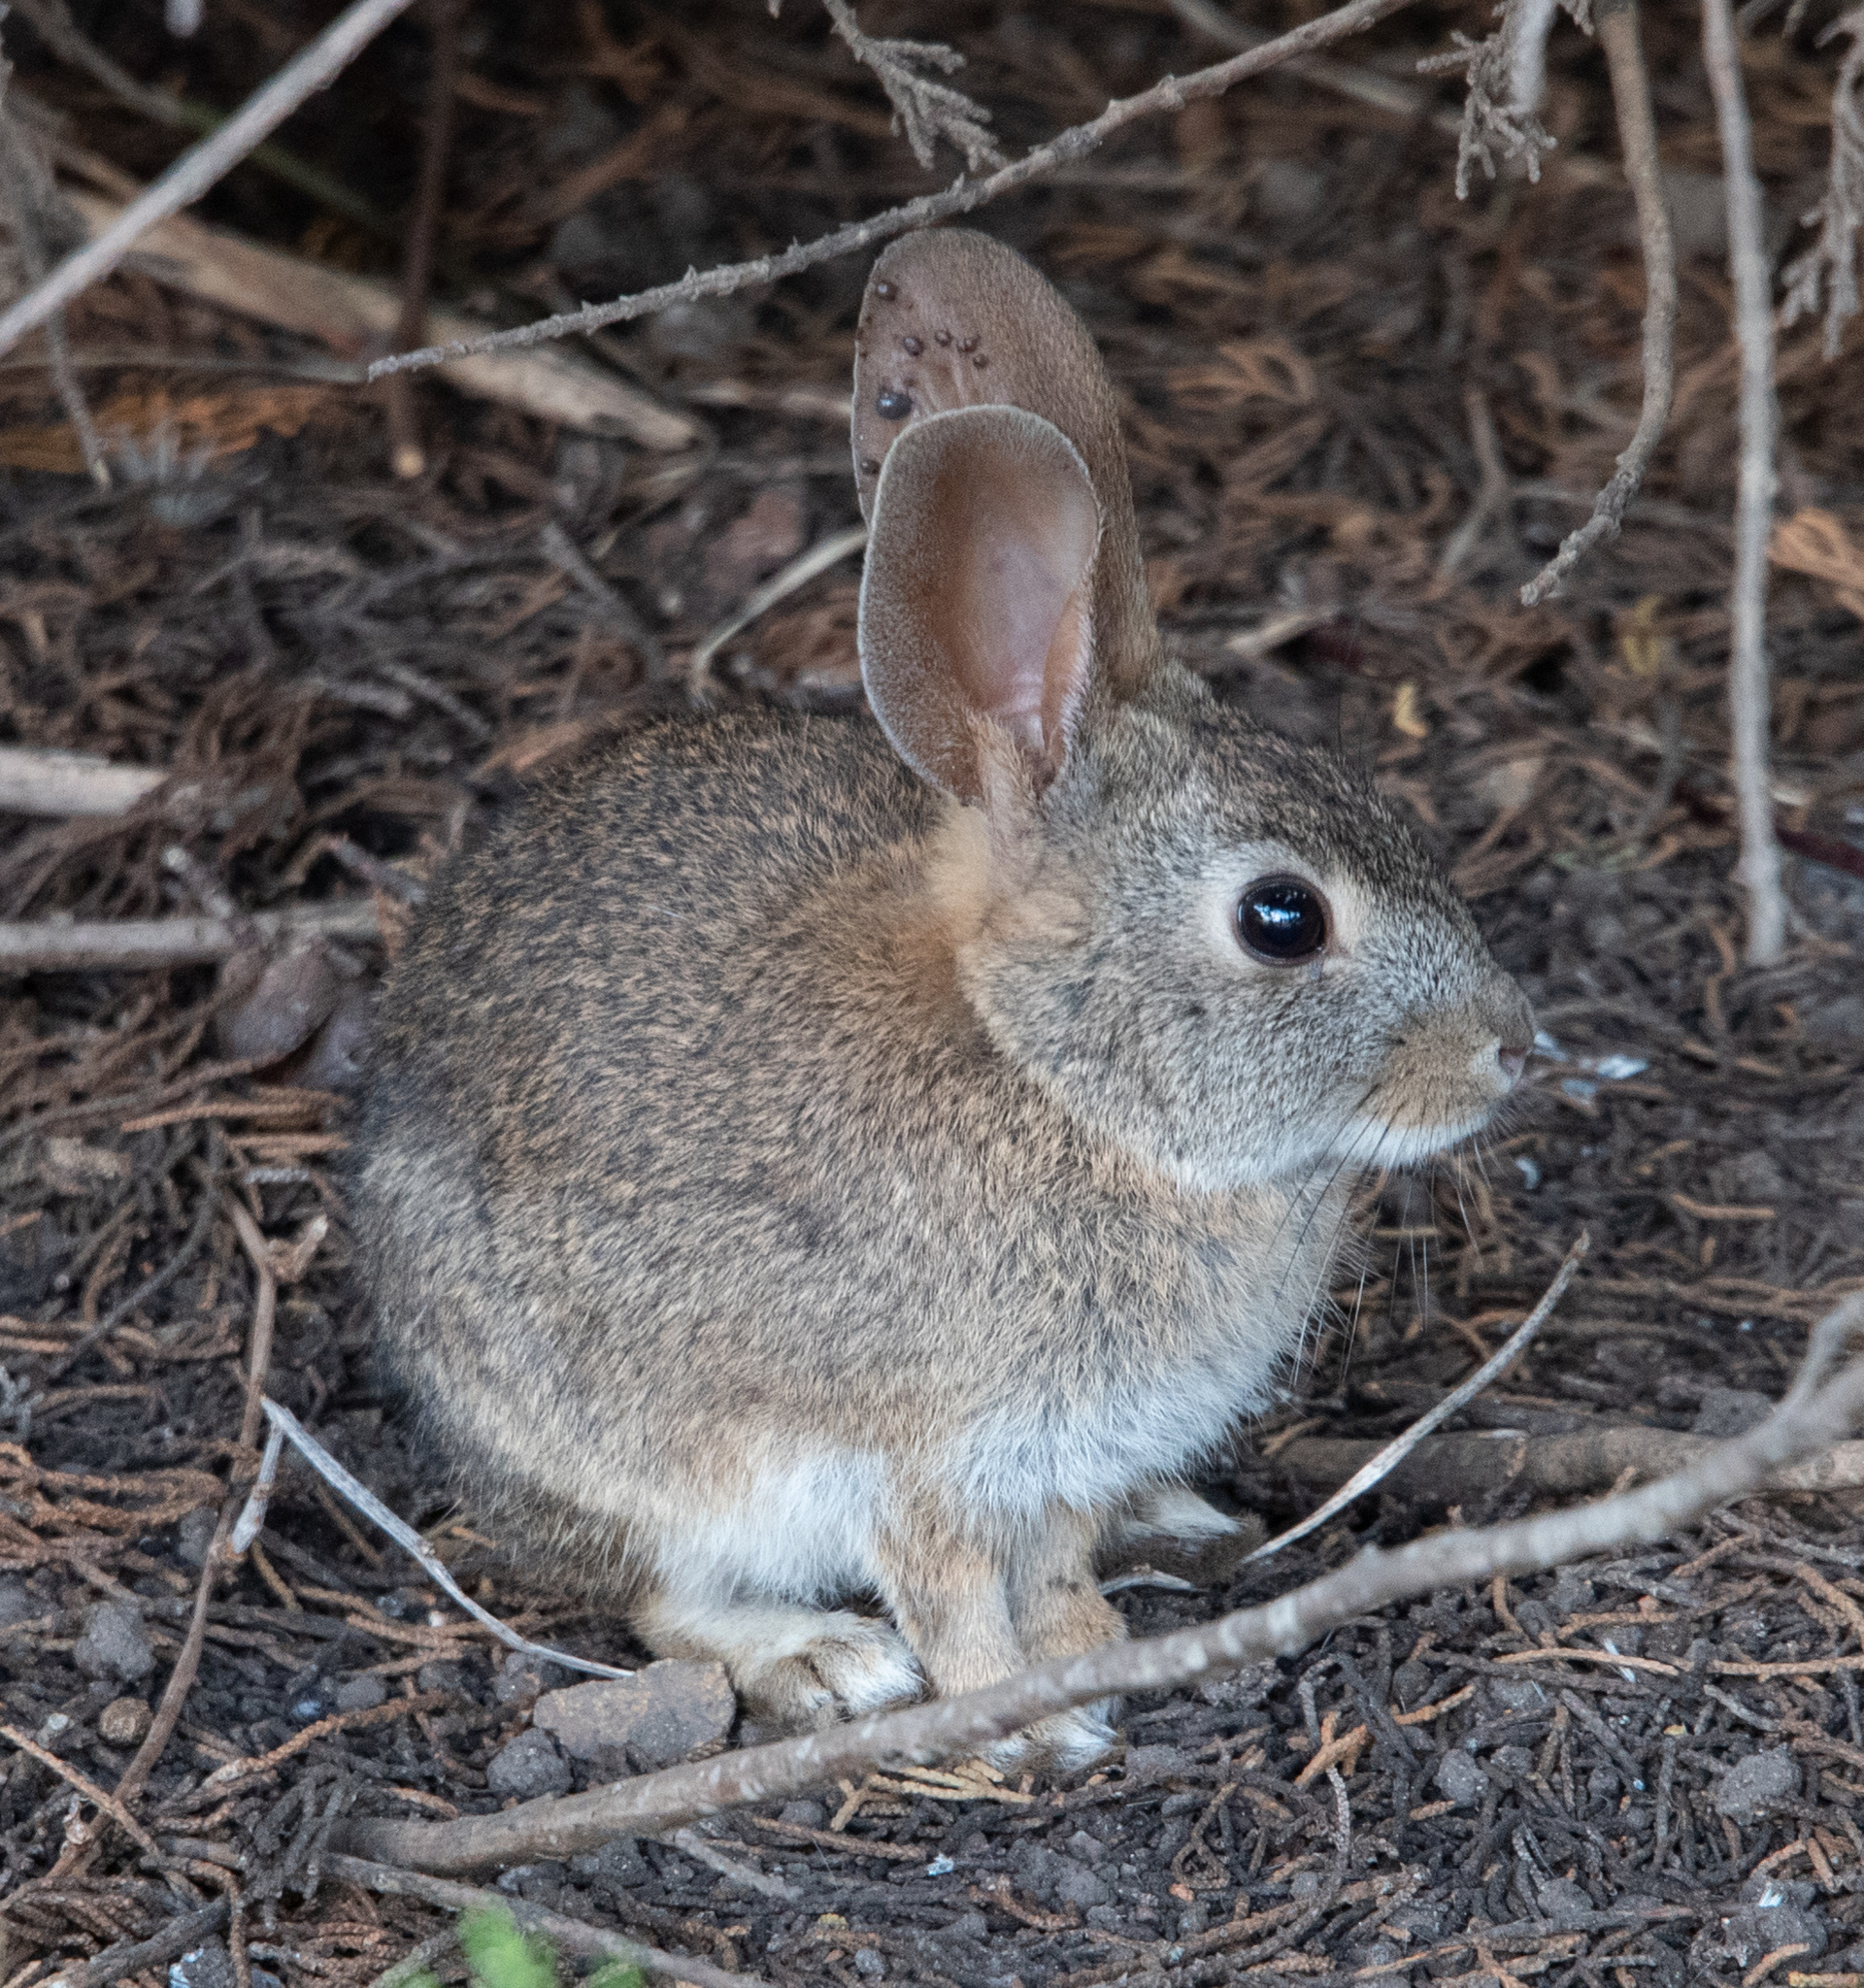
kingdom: Animalia
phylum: Chordata
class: Mammalia
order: Lagomorpha
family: Leporidae
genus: Sylvilagus
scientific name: Sylvilagus bachmani
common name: Brush rabbit
